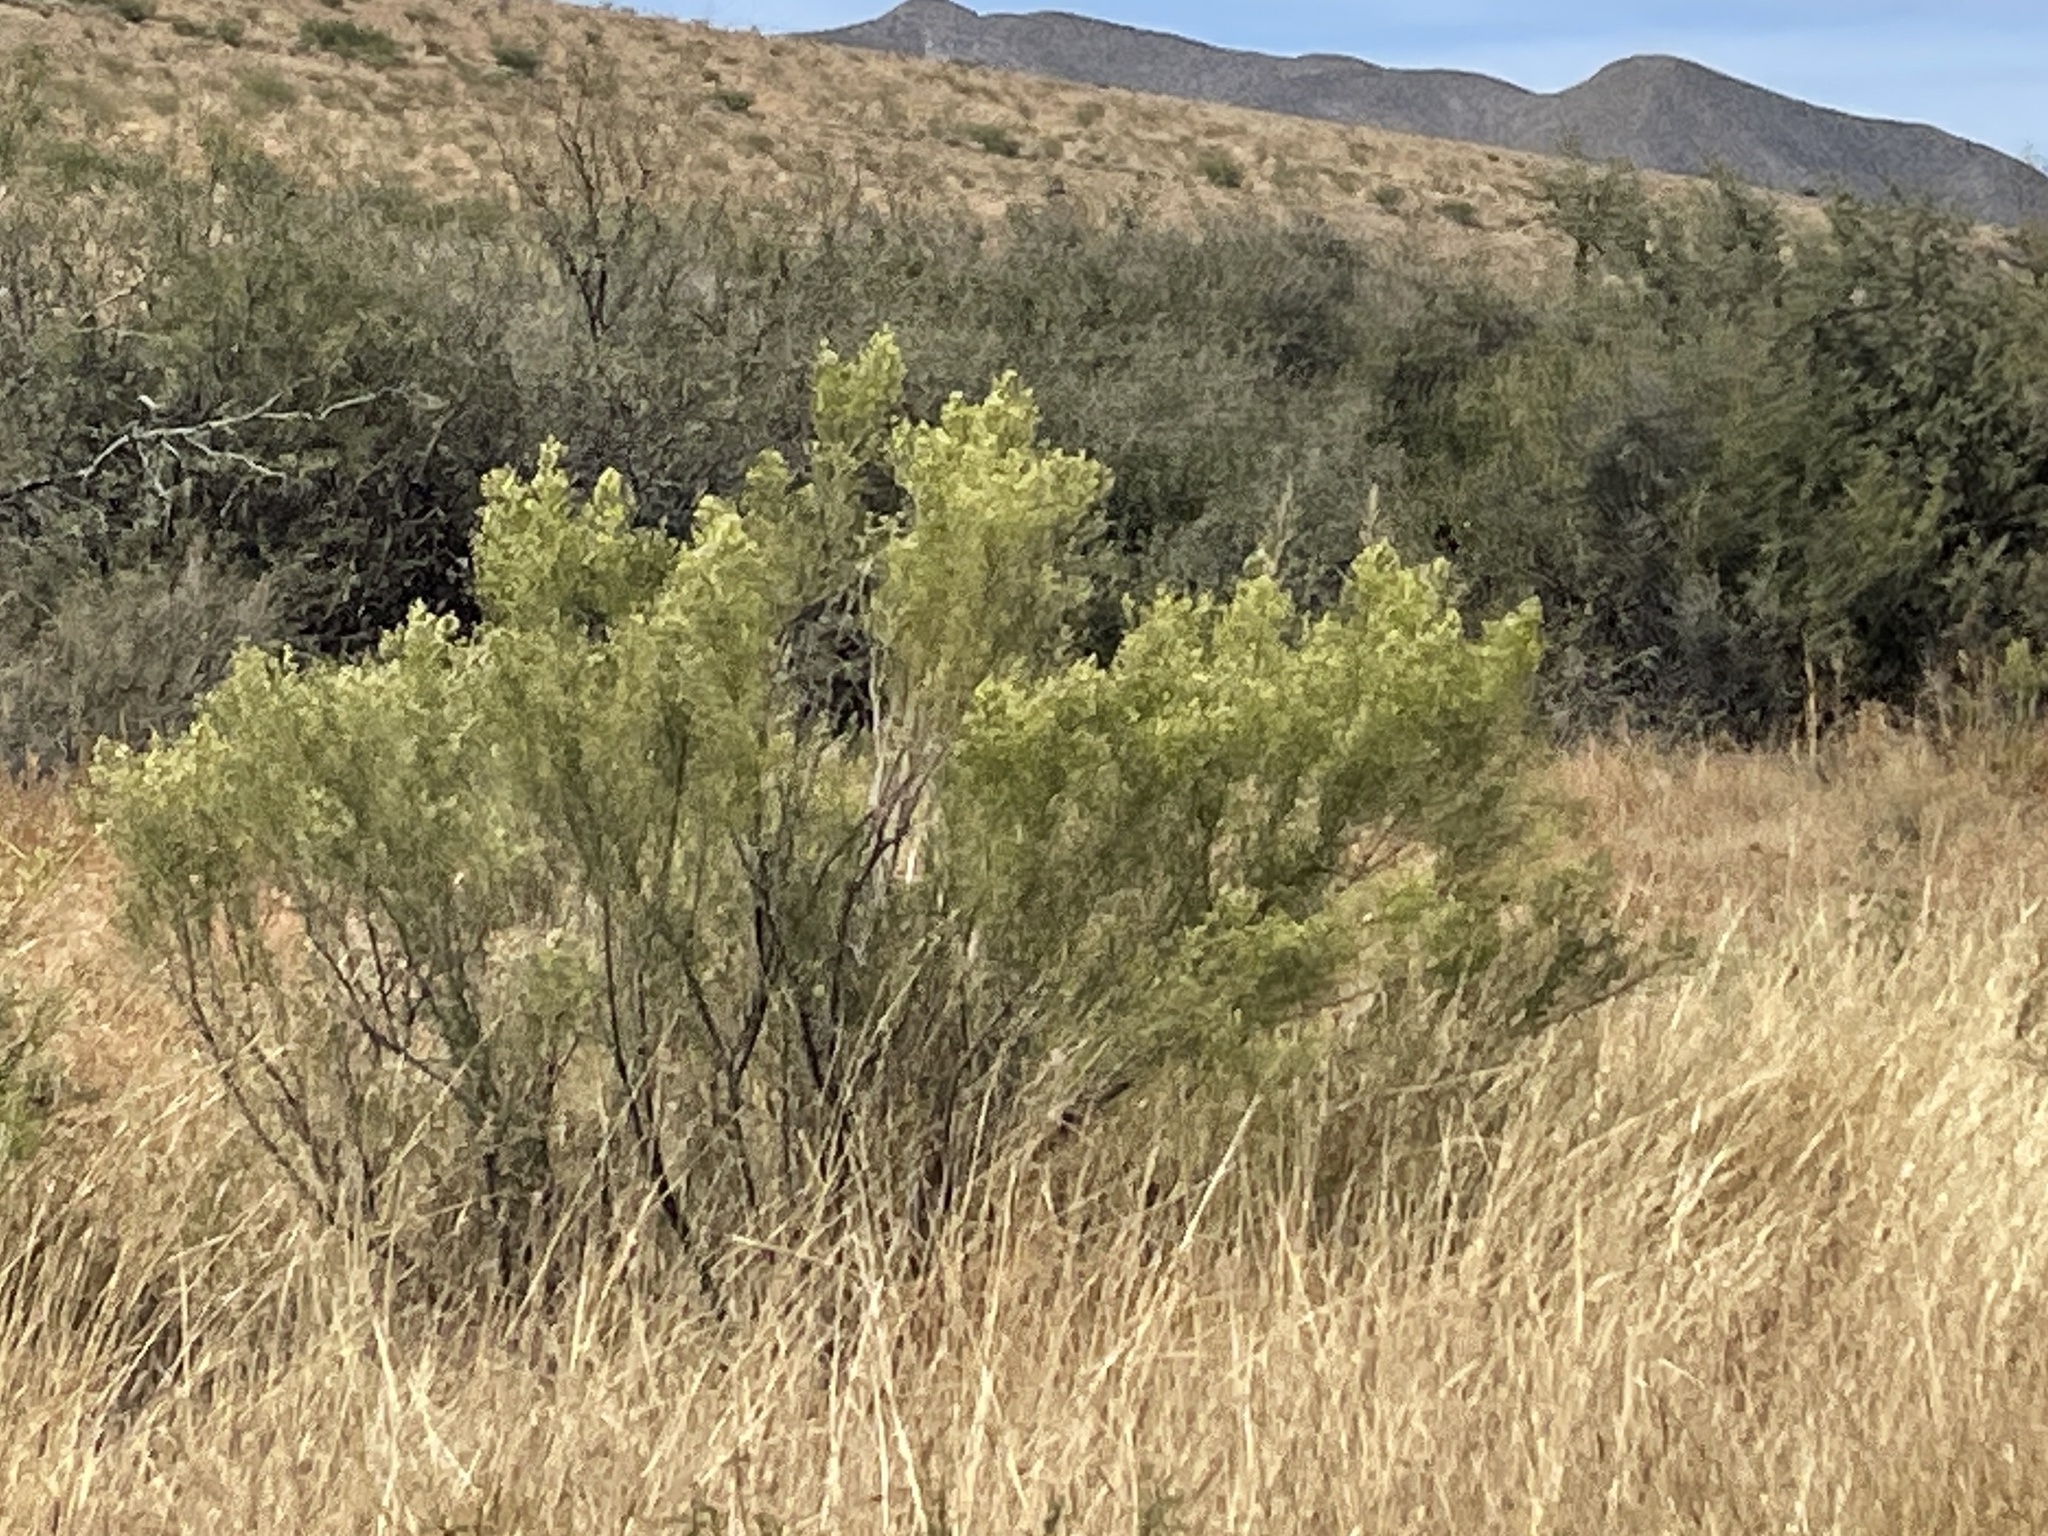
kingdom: Plantae
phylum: Tracheophyta
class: Magnoliopsida
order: Asterales
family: Asteraceae
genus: Baccharis
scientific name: Baccharis sarothroides
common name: Desert-broom
